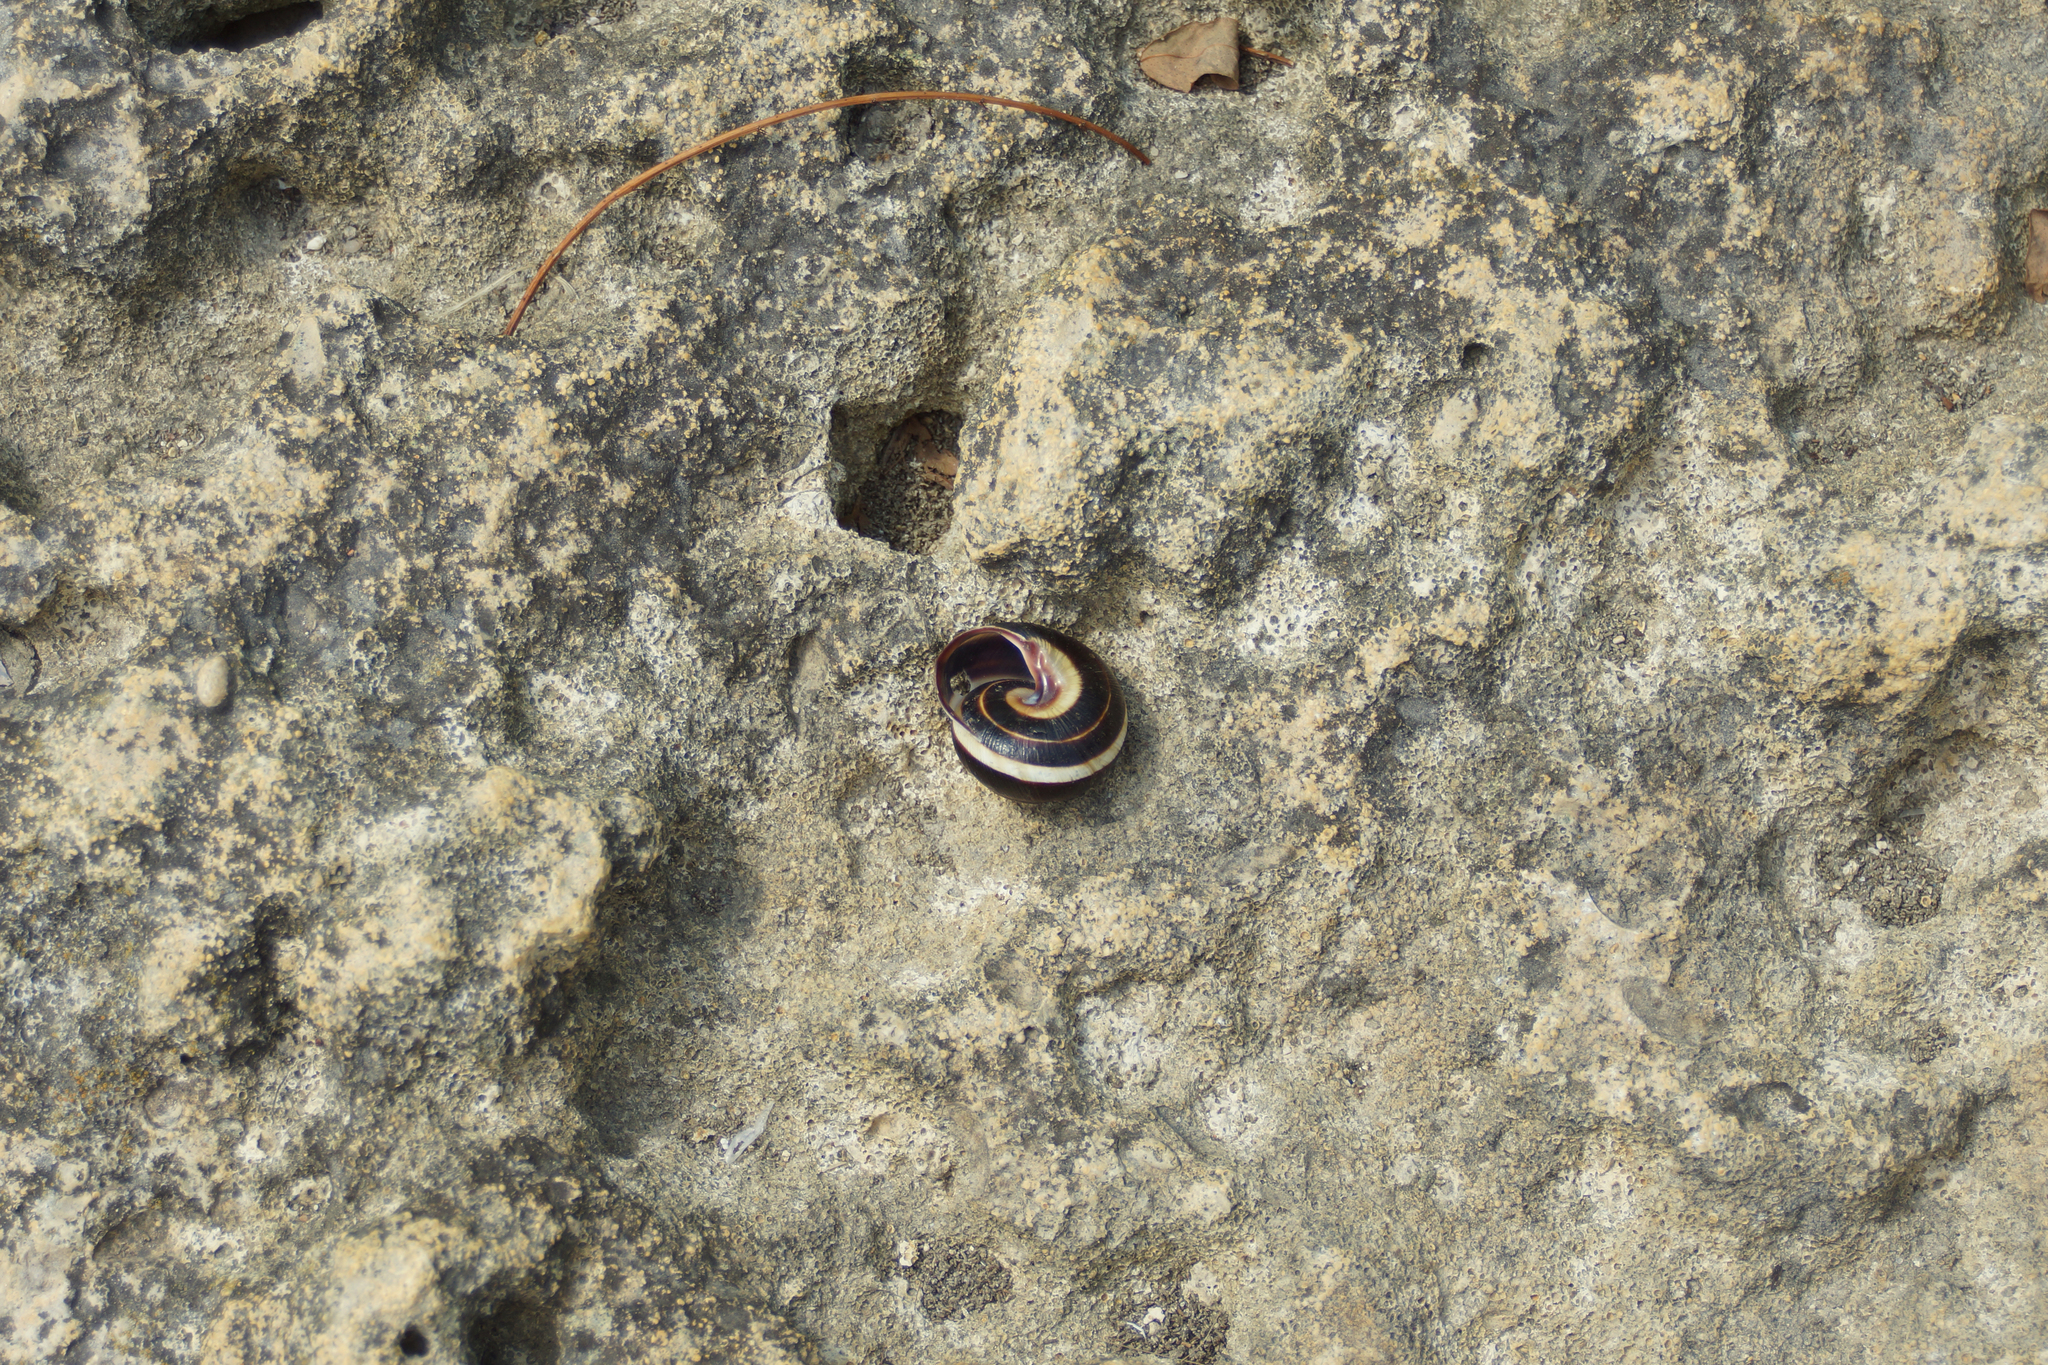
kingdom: Animalia
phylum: Mollusca
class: Gastropoda
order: Stylommatophora
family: Helicidae
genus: Caucasotachea
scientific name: Caucasotachea vindobonensis
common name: European helicid land snail
